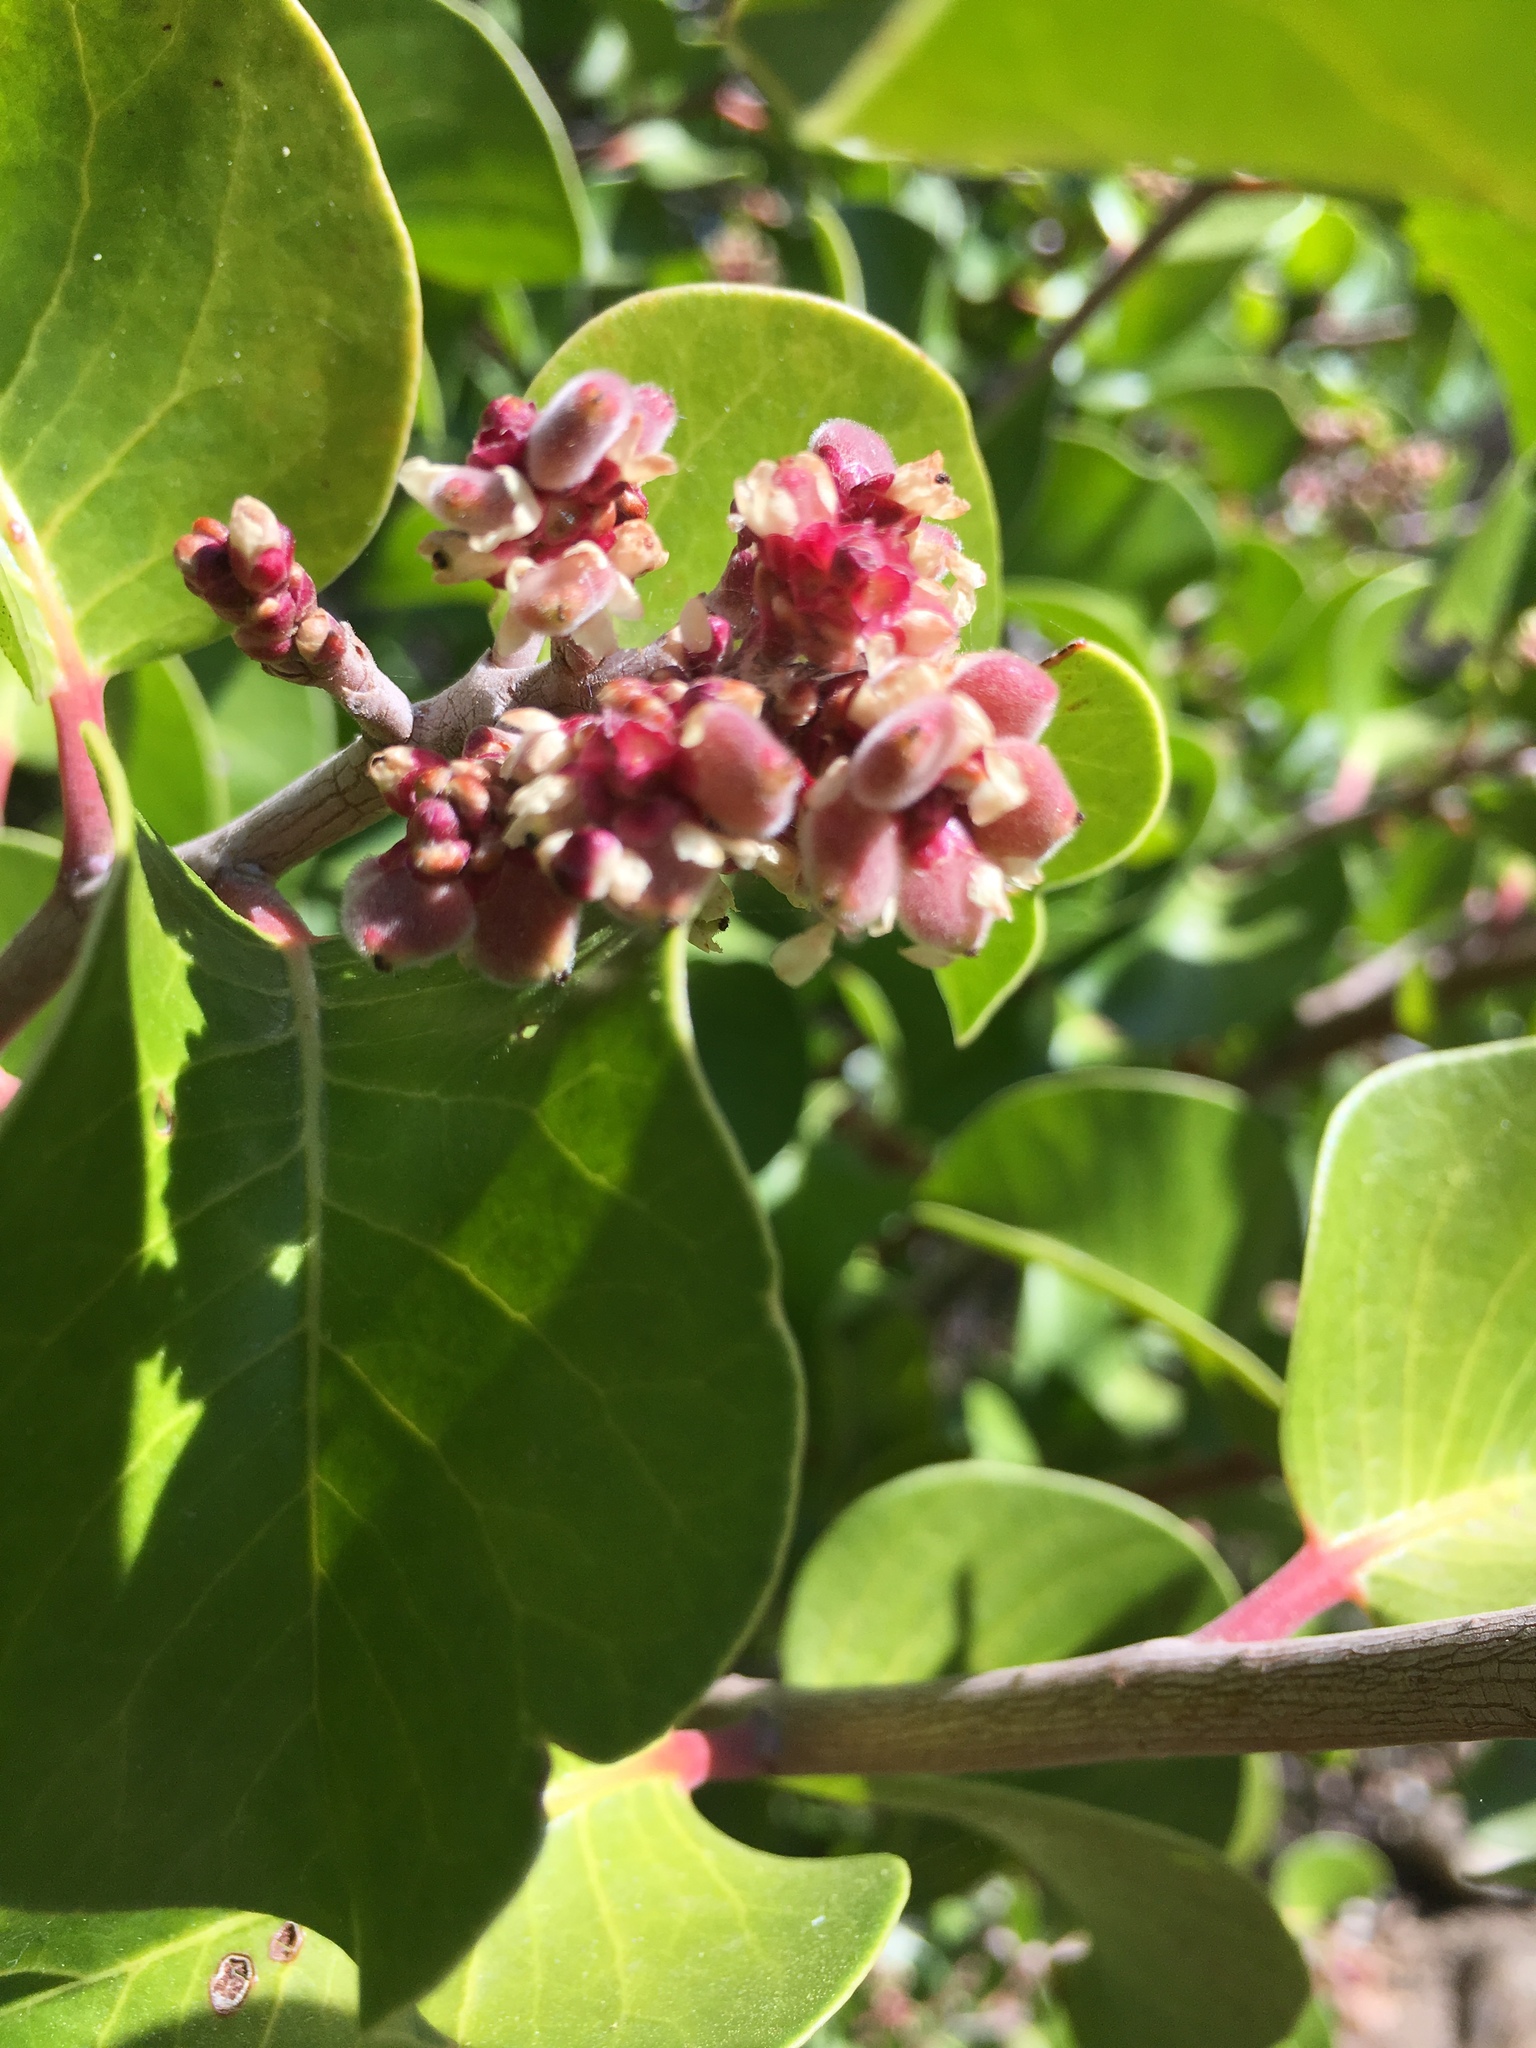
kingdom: Plantae
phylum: Tracheophyta
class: Magnoliopsida
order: Sapindales
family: Anacardiaceae
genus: Rhus
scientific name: Rhus ovata
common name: Sugar sumac
